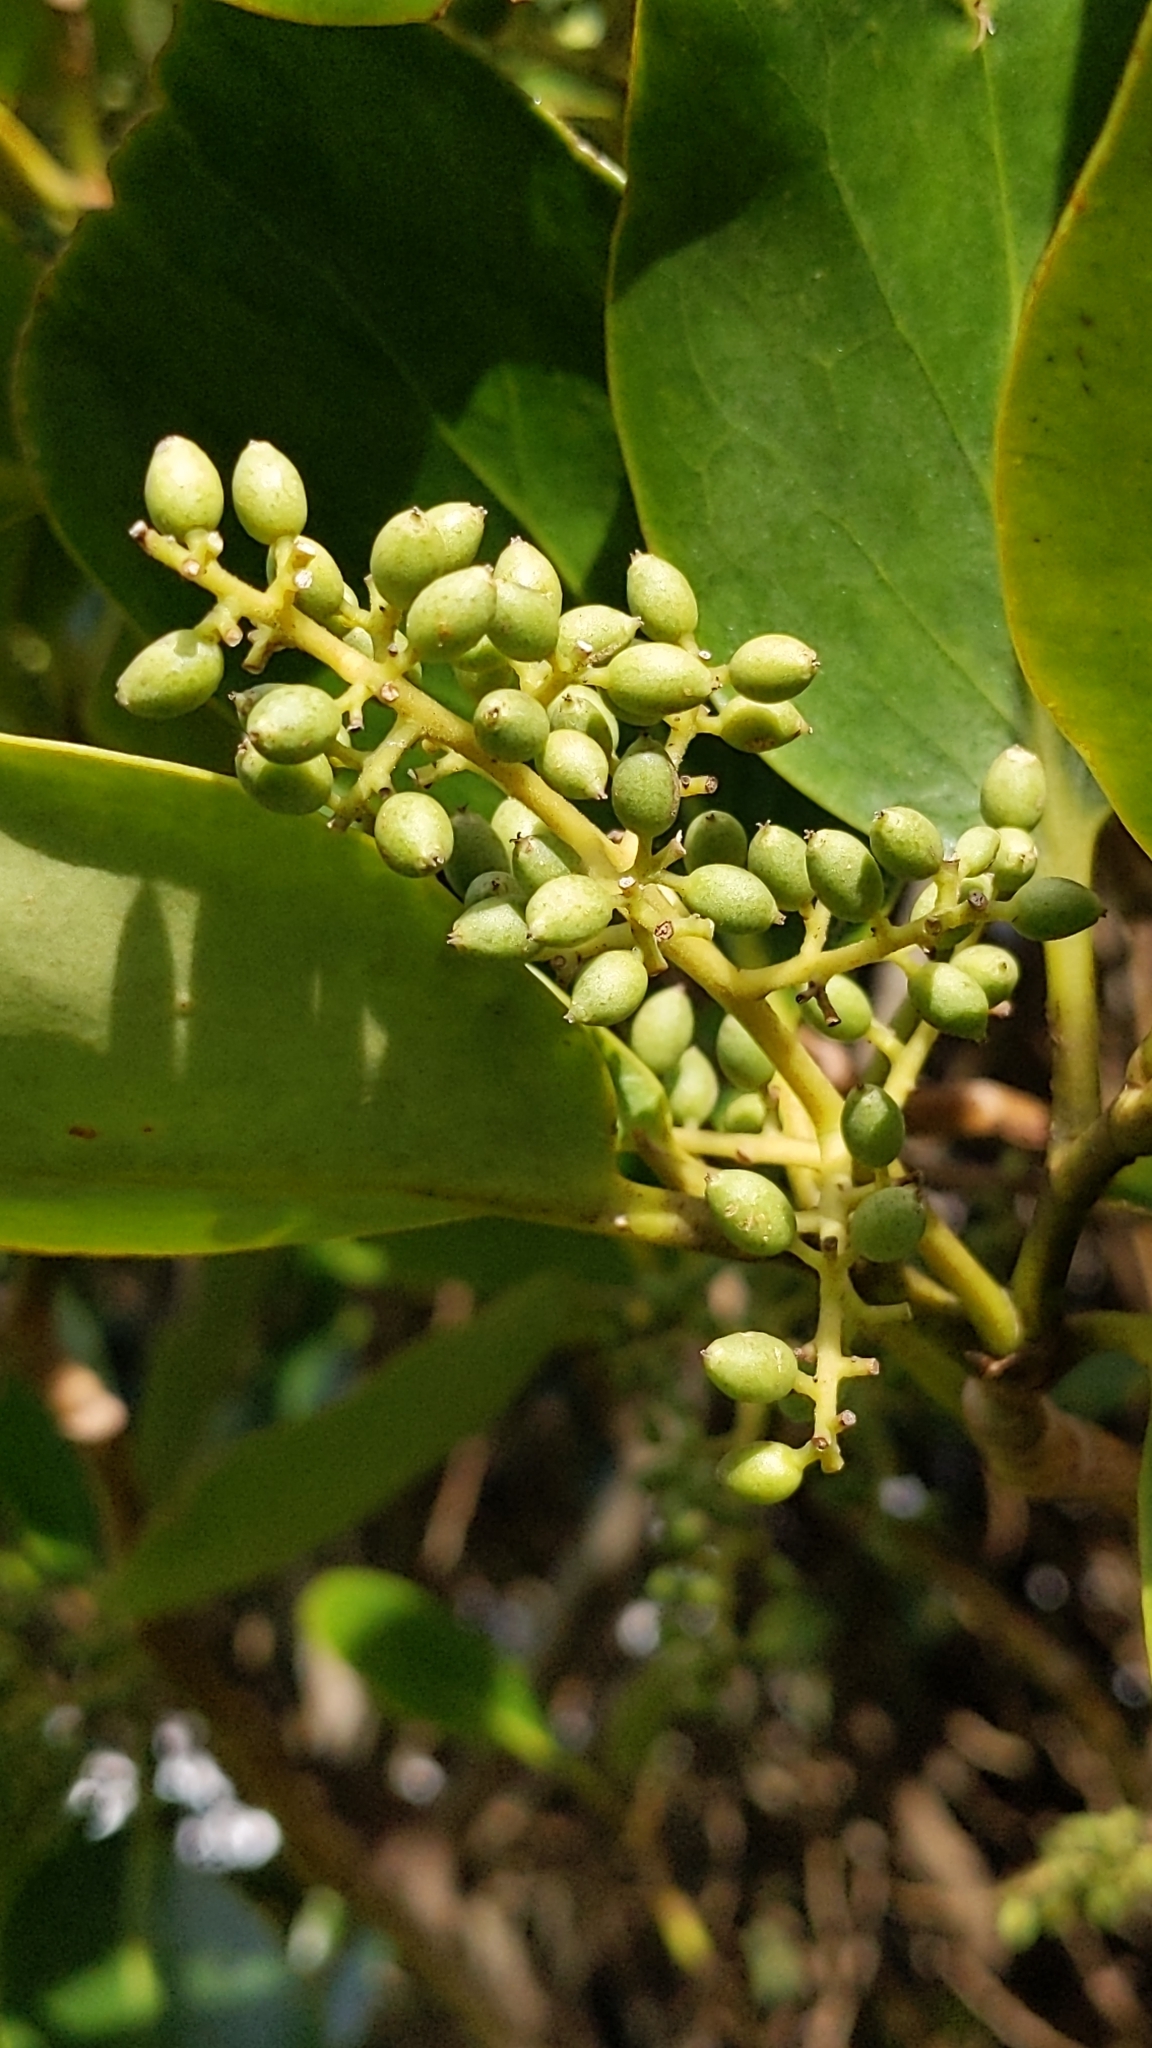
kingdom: Plantae
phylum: Tracheophyta
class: Magnoliopsida
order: Apiales
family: Griseliniaceae
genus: Griselinia
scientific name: Griselinia littoralis
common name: New zealand broadleaf
